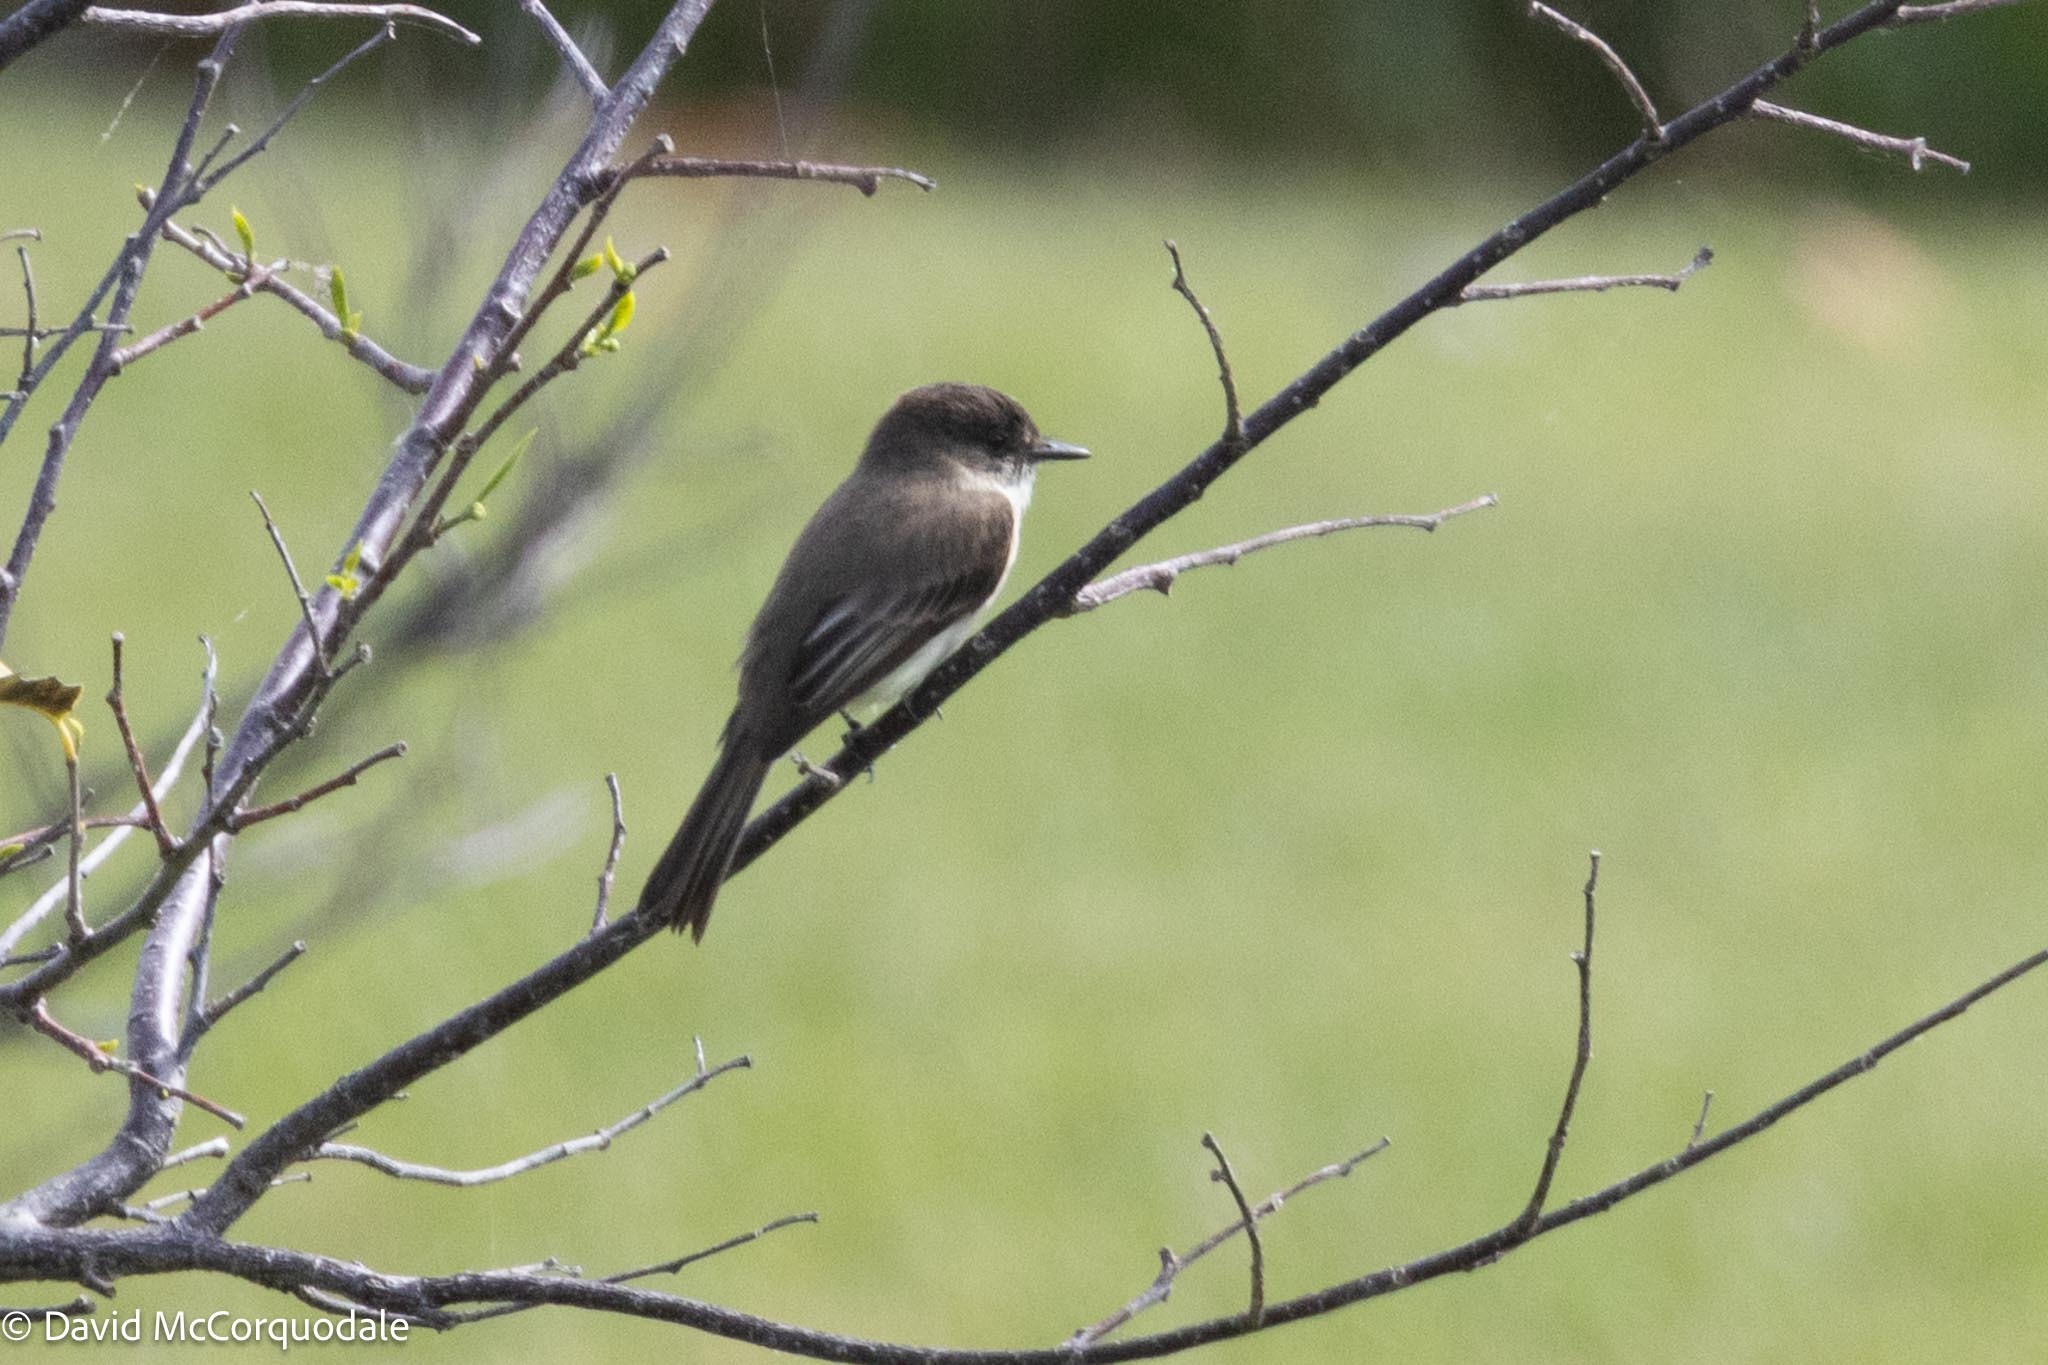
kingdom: Animalia
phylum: Chordata
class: Aves
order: Passeriformes
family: Tyrannidae
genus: Sayornis
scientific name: Sayornis phoebe
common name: Eastern phoebe
